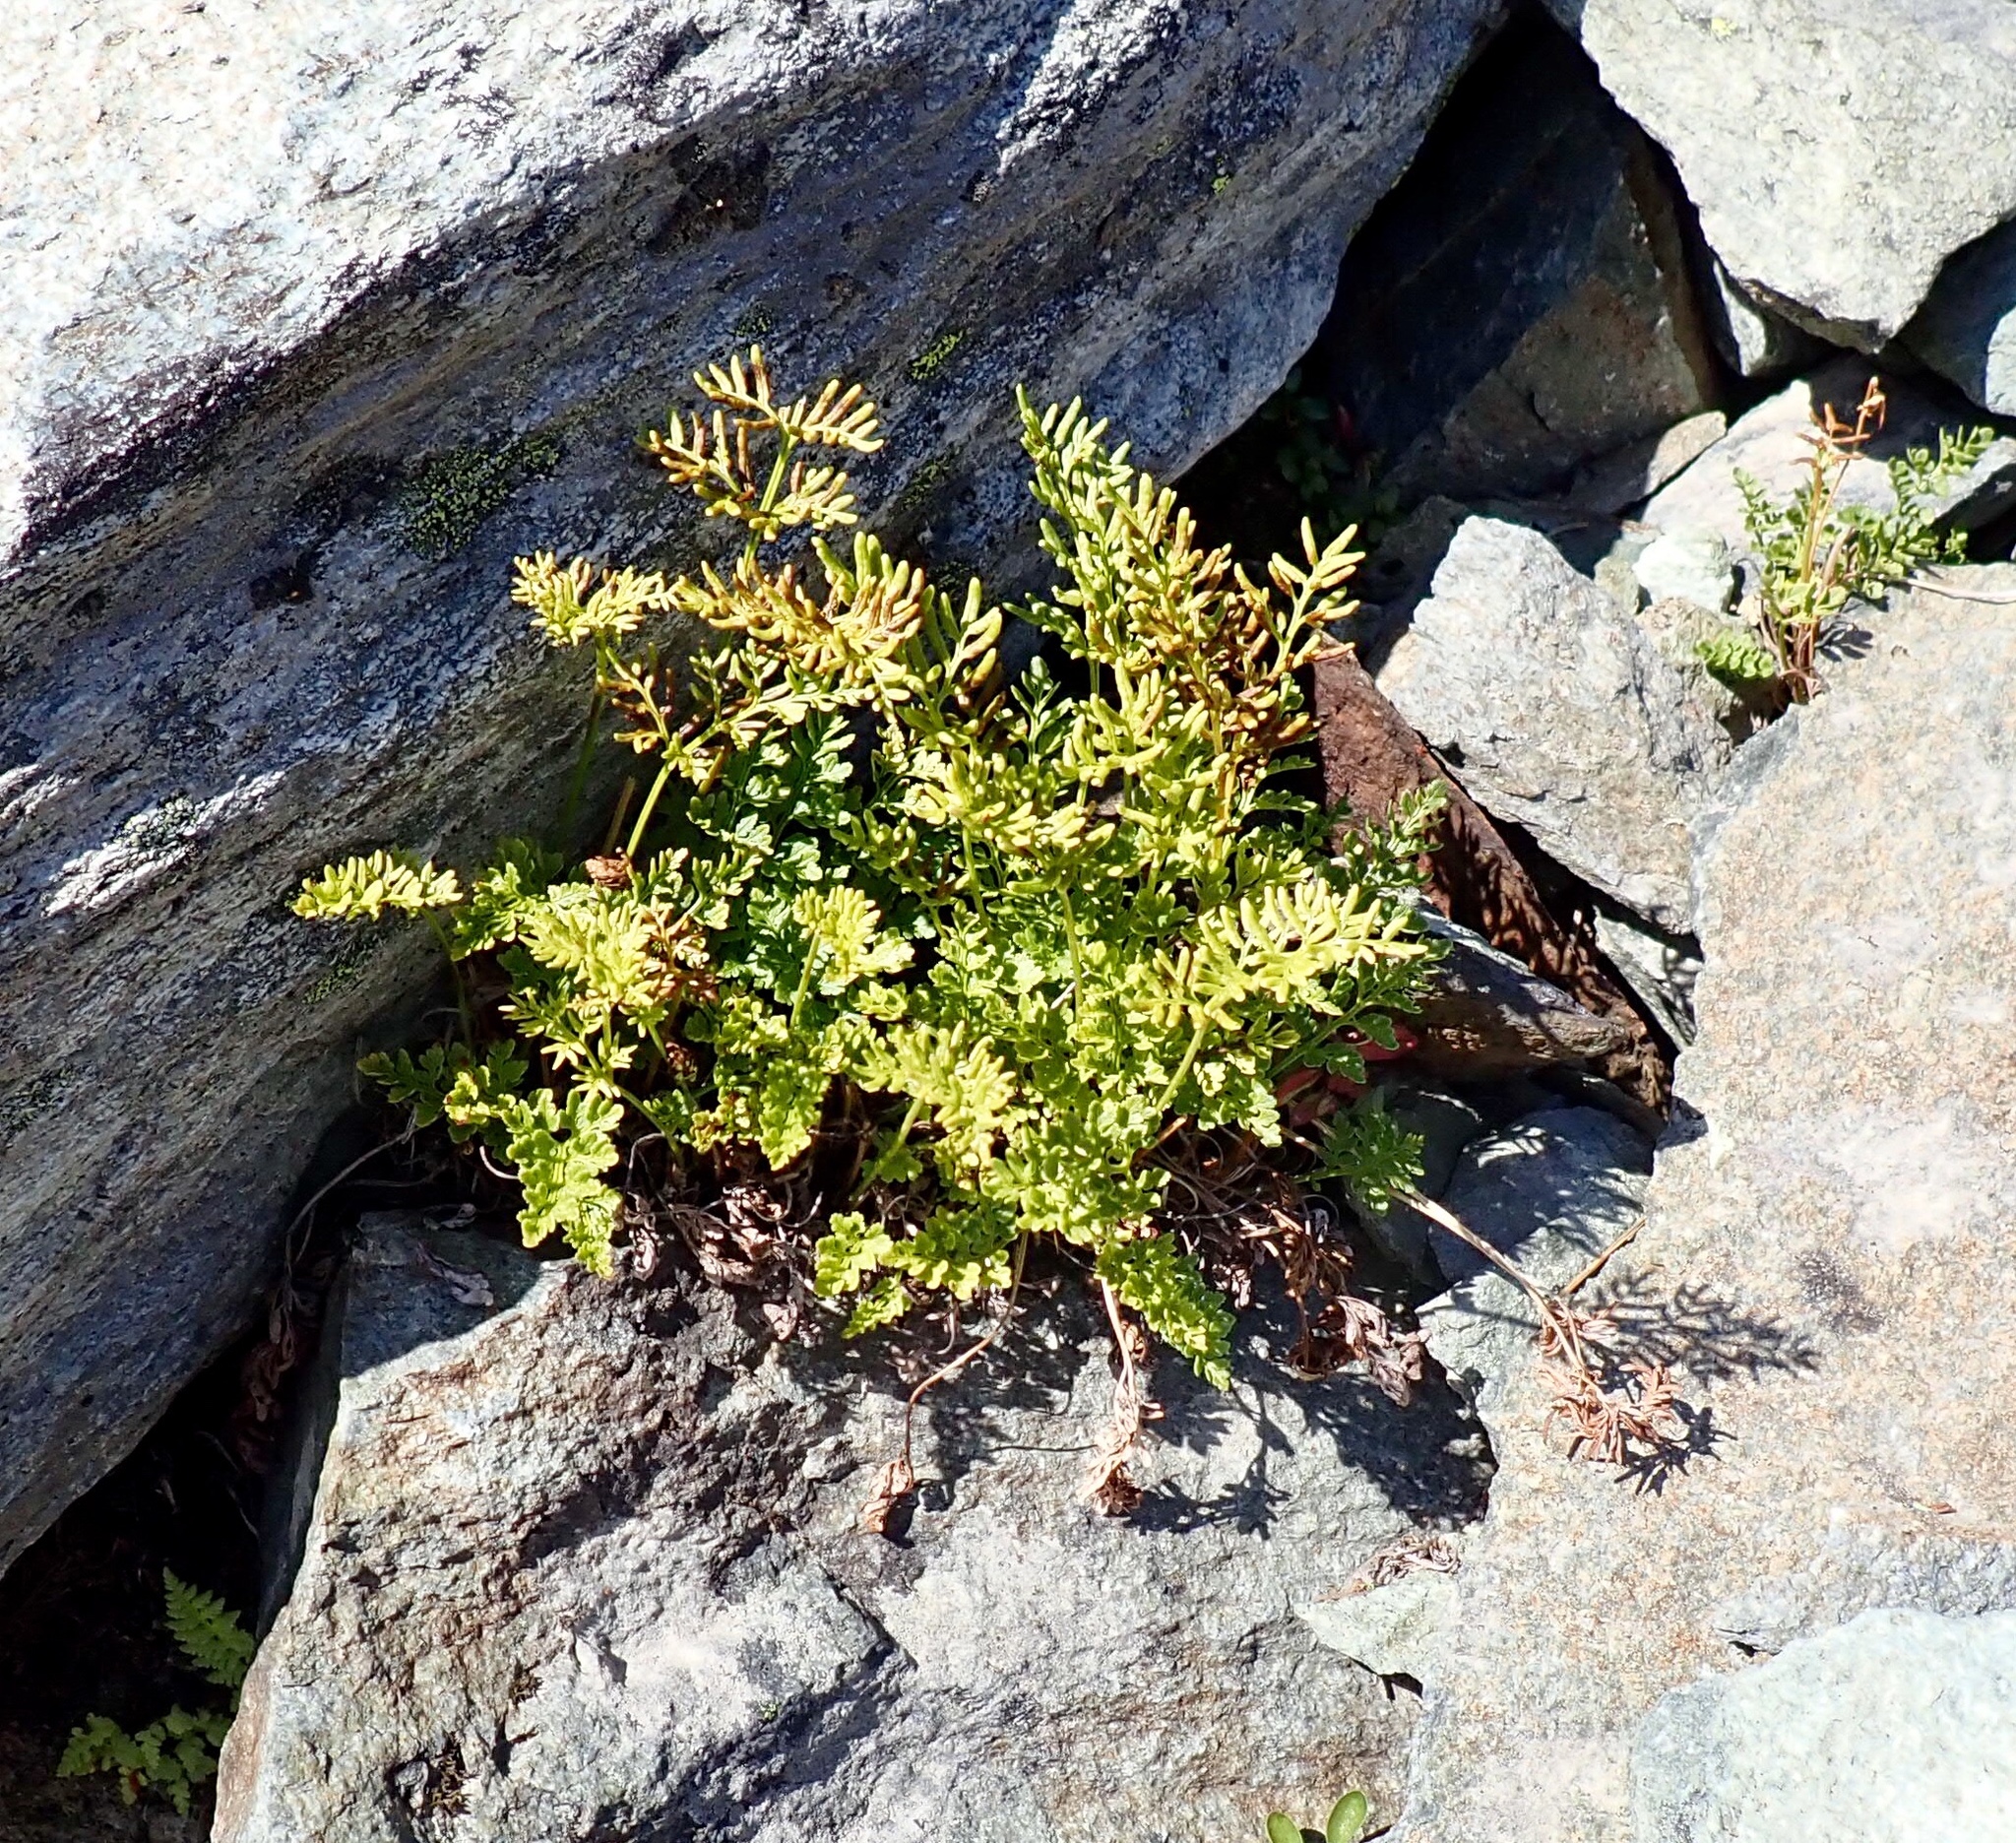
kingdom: Plantae
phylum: Tracheophyta
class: Polypodiopsida
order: Polypodiales
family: Pteridaceae
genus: Cryptogramma
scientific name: Cryptogramma acrostichoides
